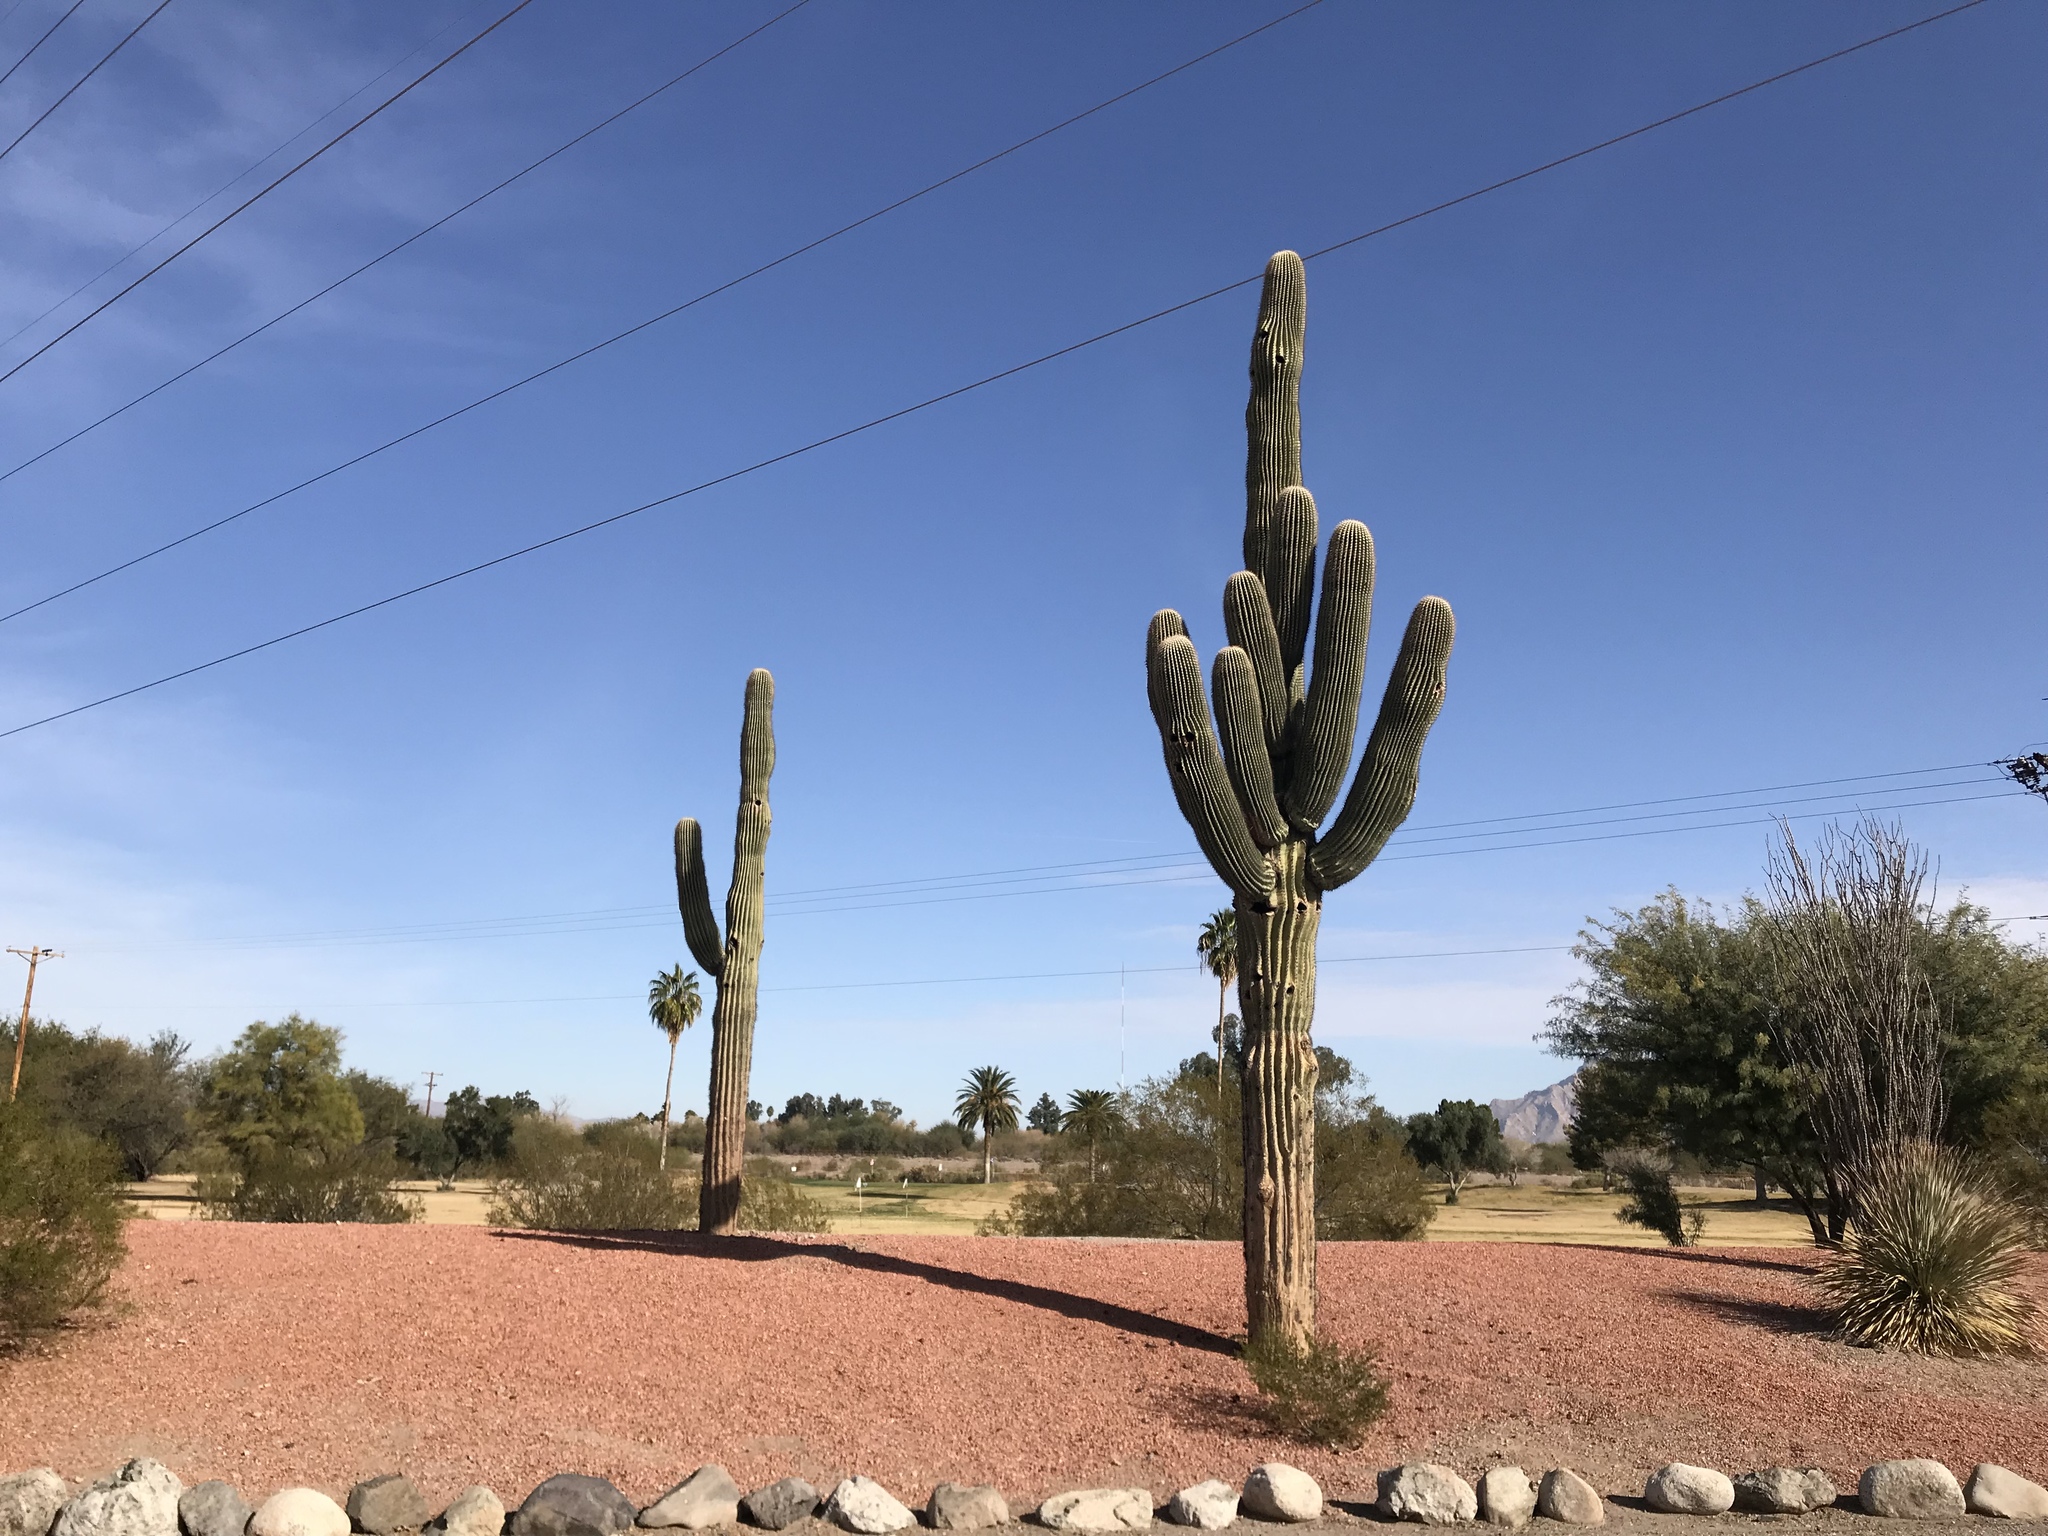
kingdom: Plantae
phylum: Tracheophyta
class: Magnoliopsida
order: Caryophyllales
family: Cactaceae
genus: Carnegiea
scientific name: Carnegiea gigantea
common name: Saguaro
